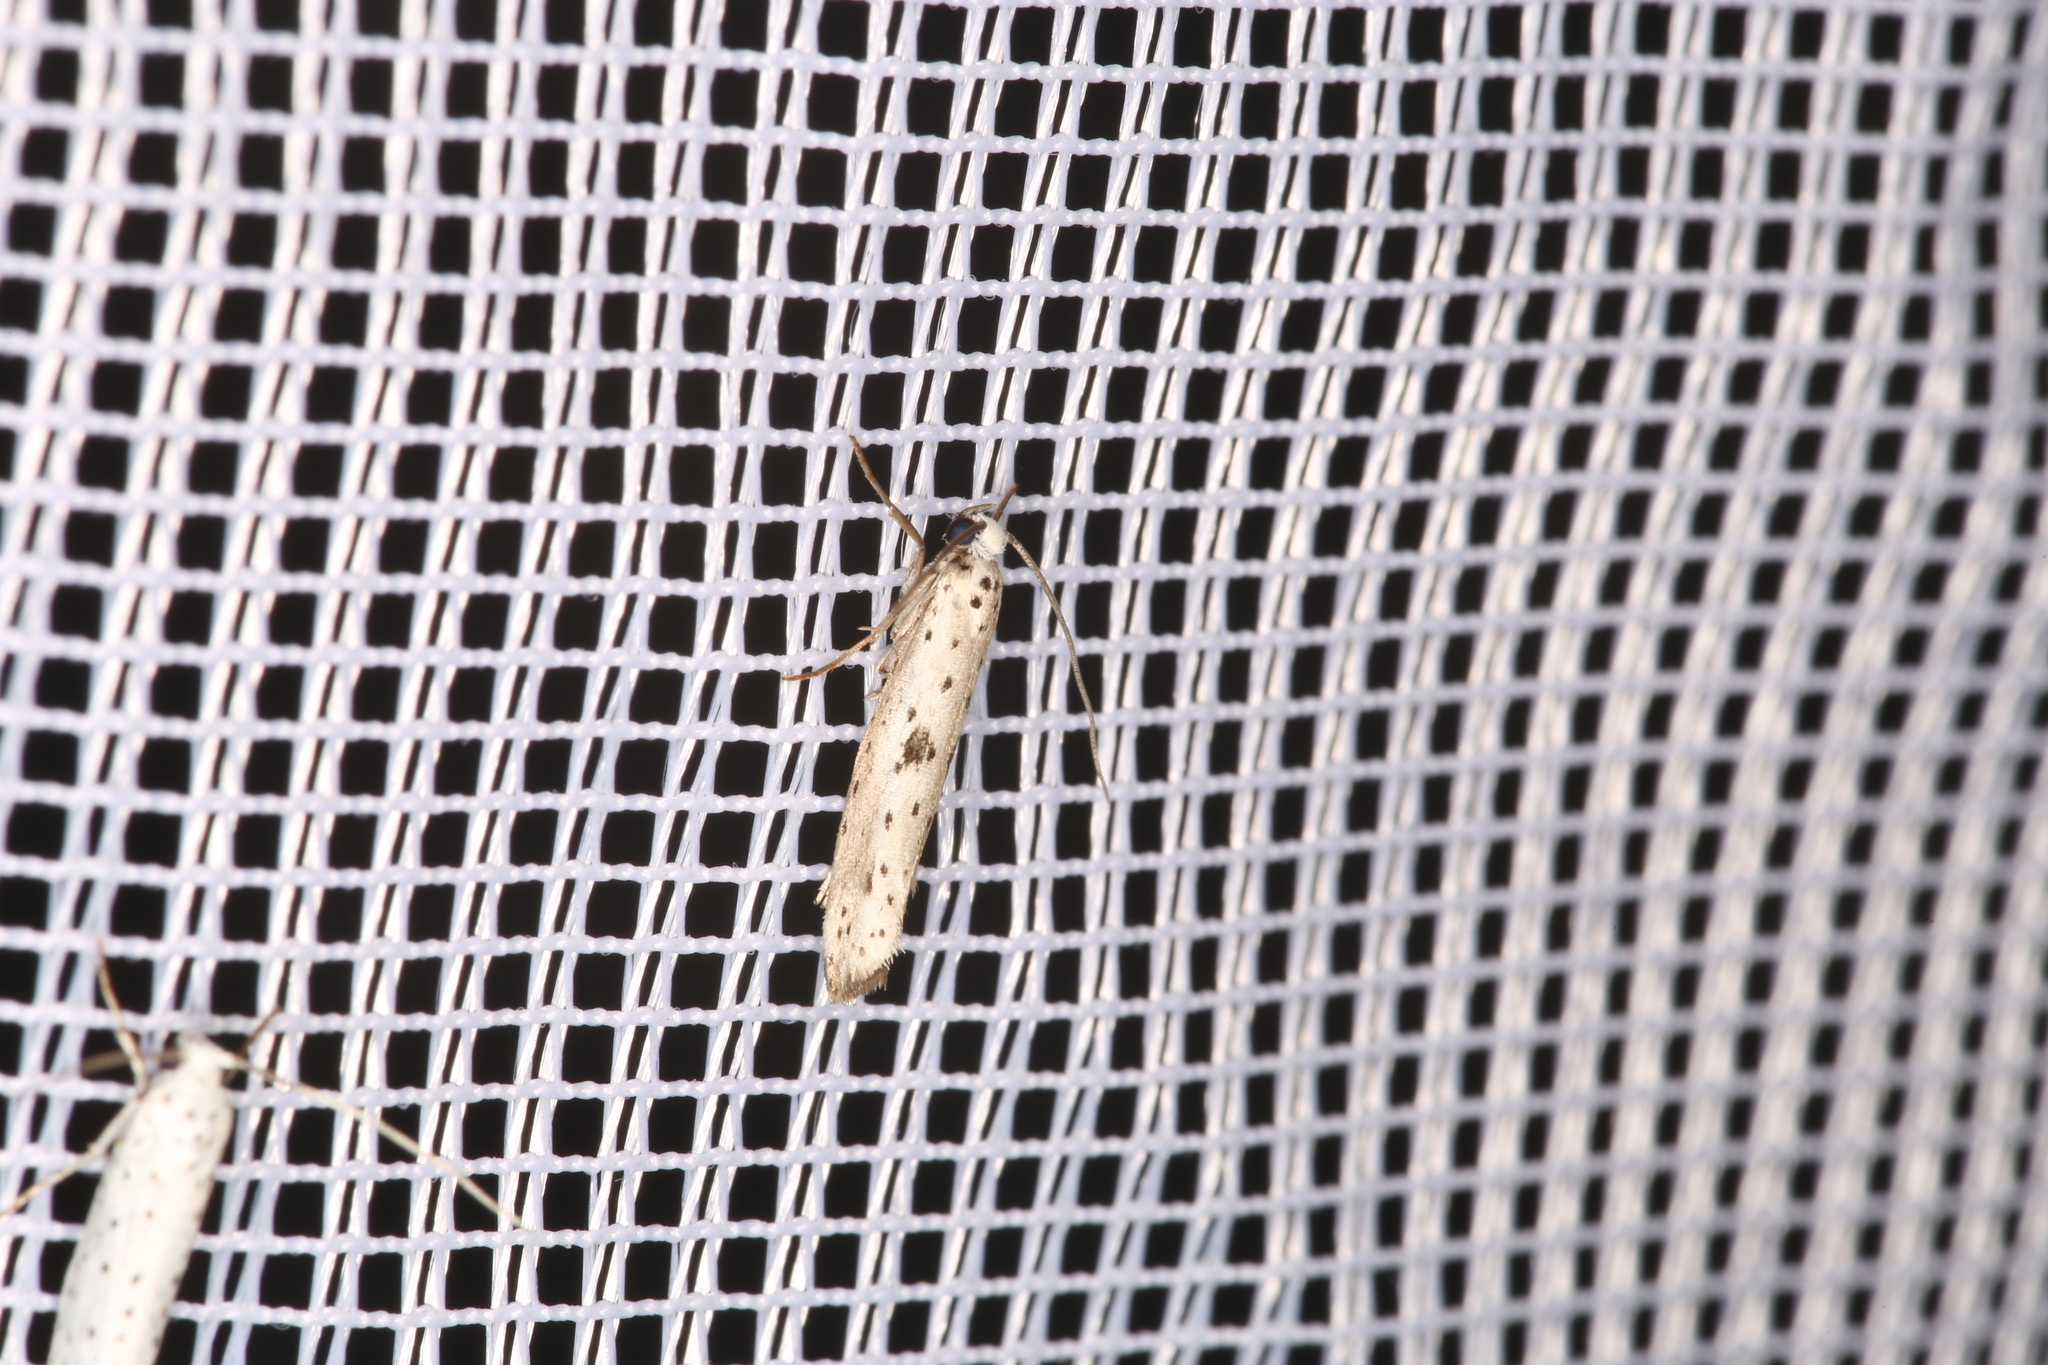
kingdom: Animalia
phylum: Arthropoda
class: Insecta
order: Lepidoptera
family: Yponomeutidae
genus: Yponomeuta
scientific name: Yponomeuta plumbella
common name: Black-tipped ermine
